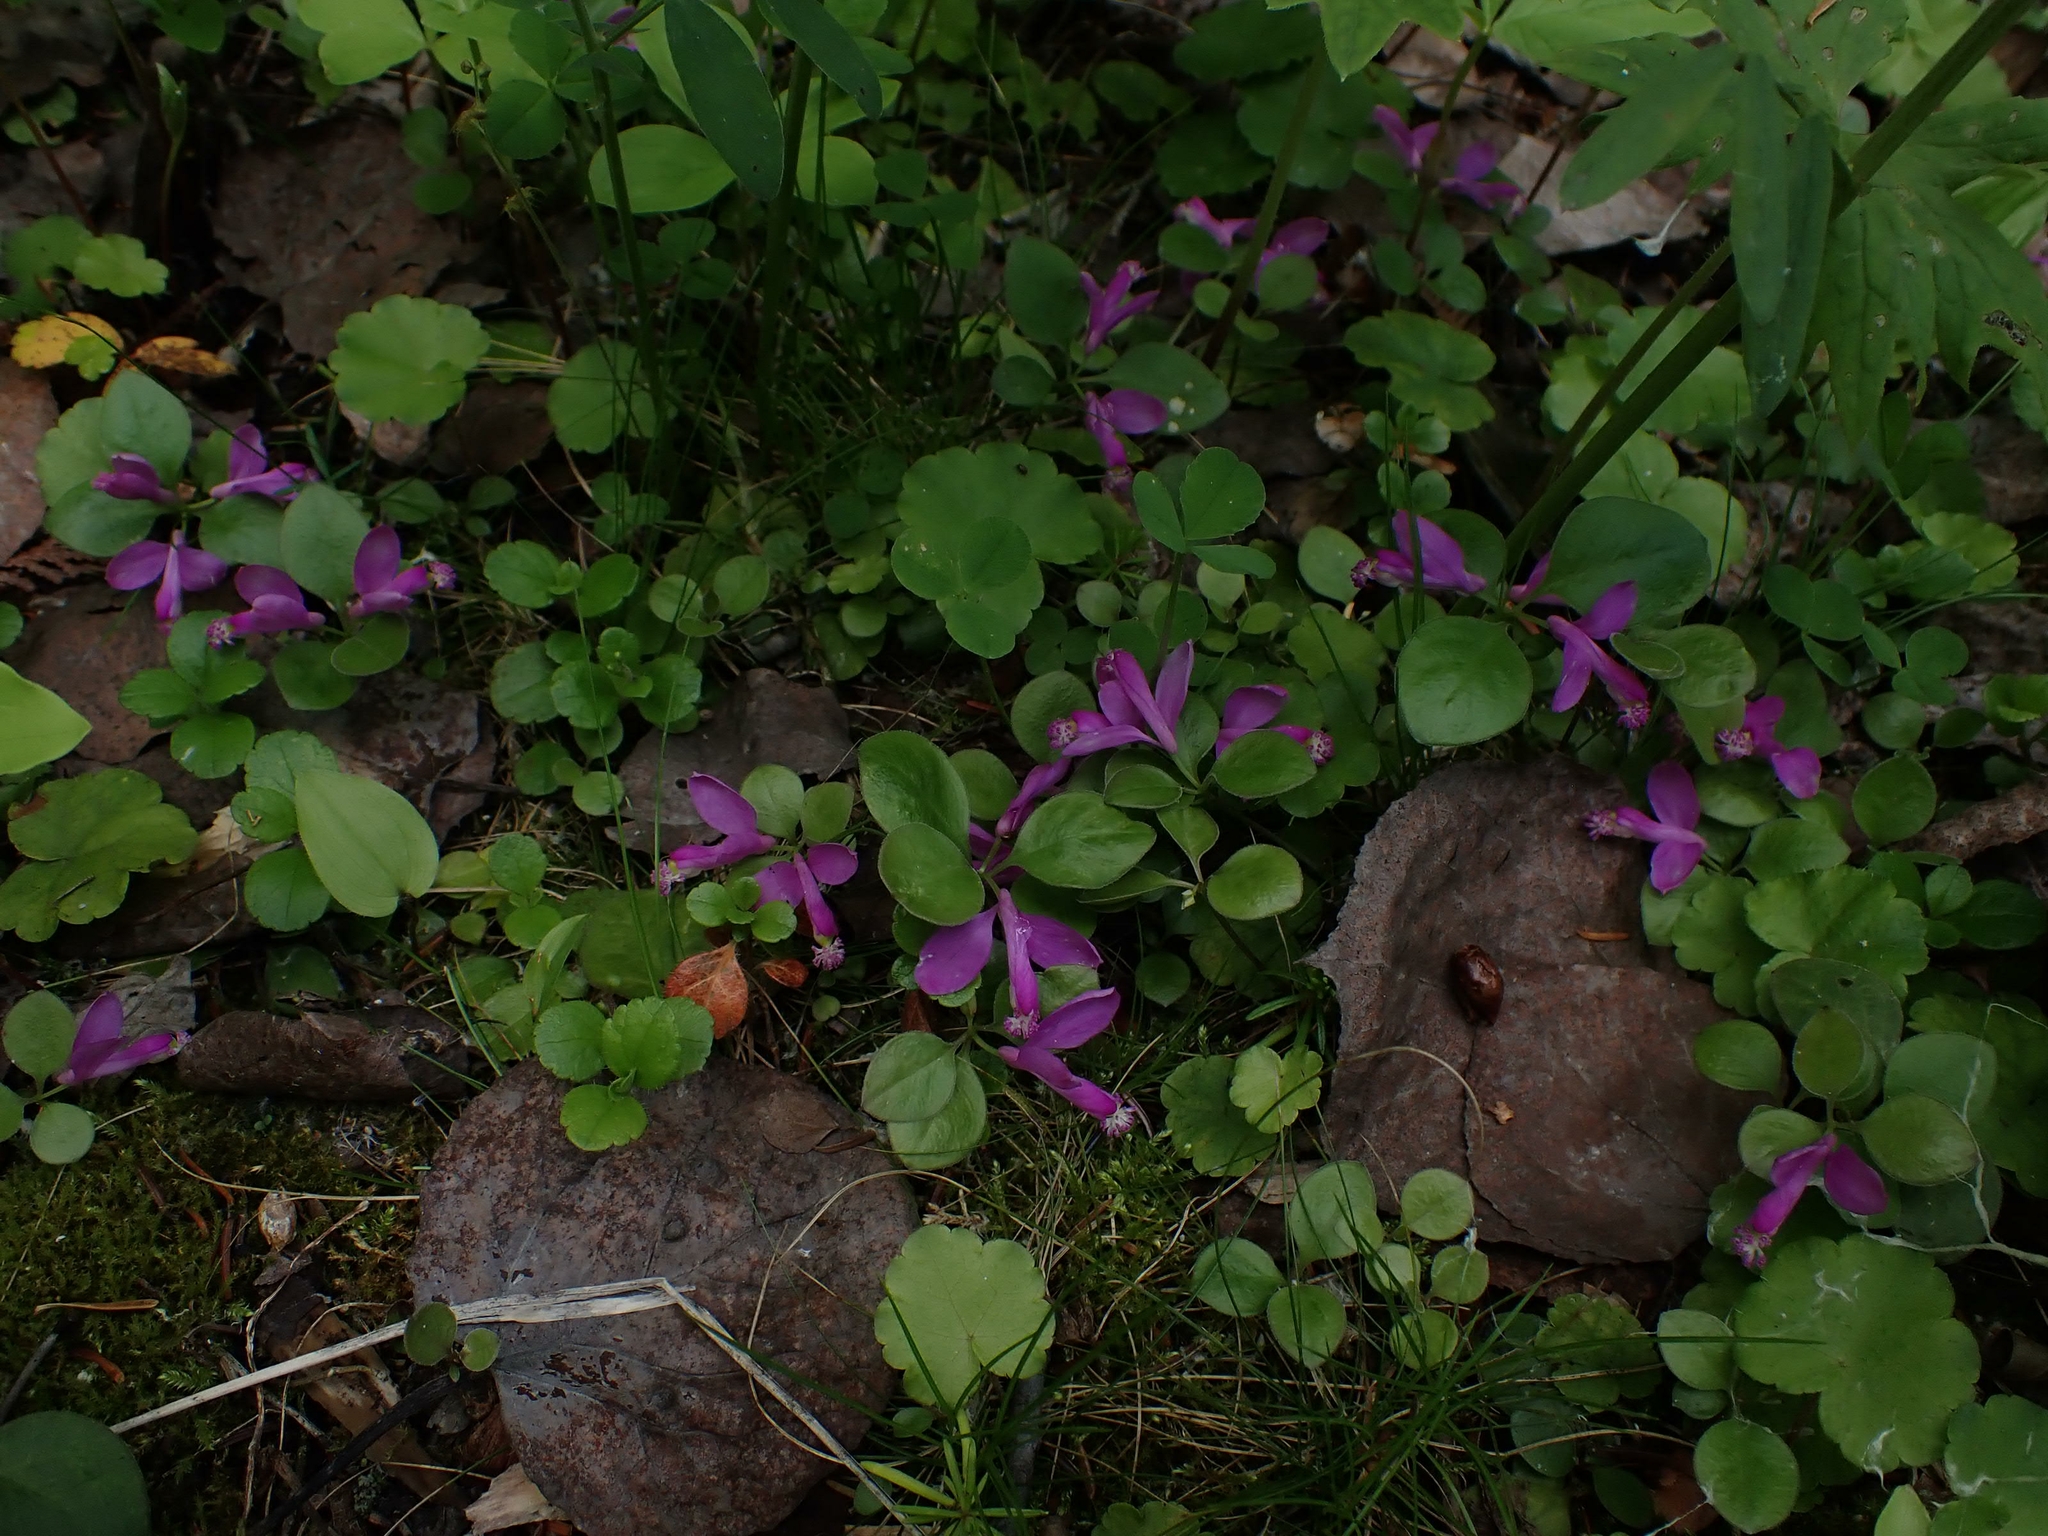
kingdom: Plantae
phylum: Tracheophyta
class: Magnoliopsida
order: Fabales
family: Polygalaceae
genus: Polygaloides
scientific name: Polygaloides paucifolia
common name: Bird-on-the-wing
